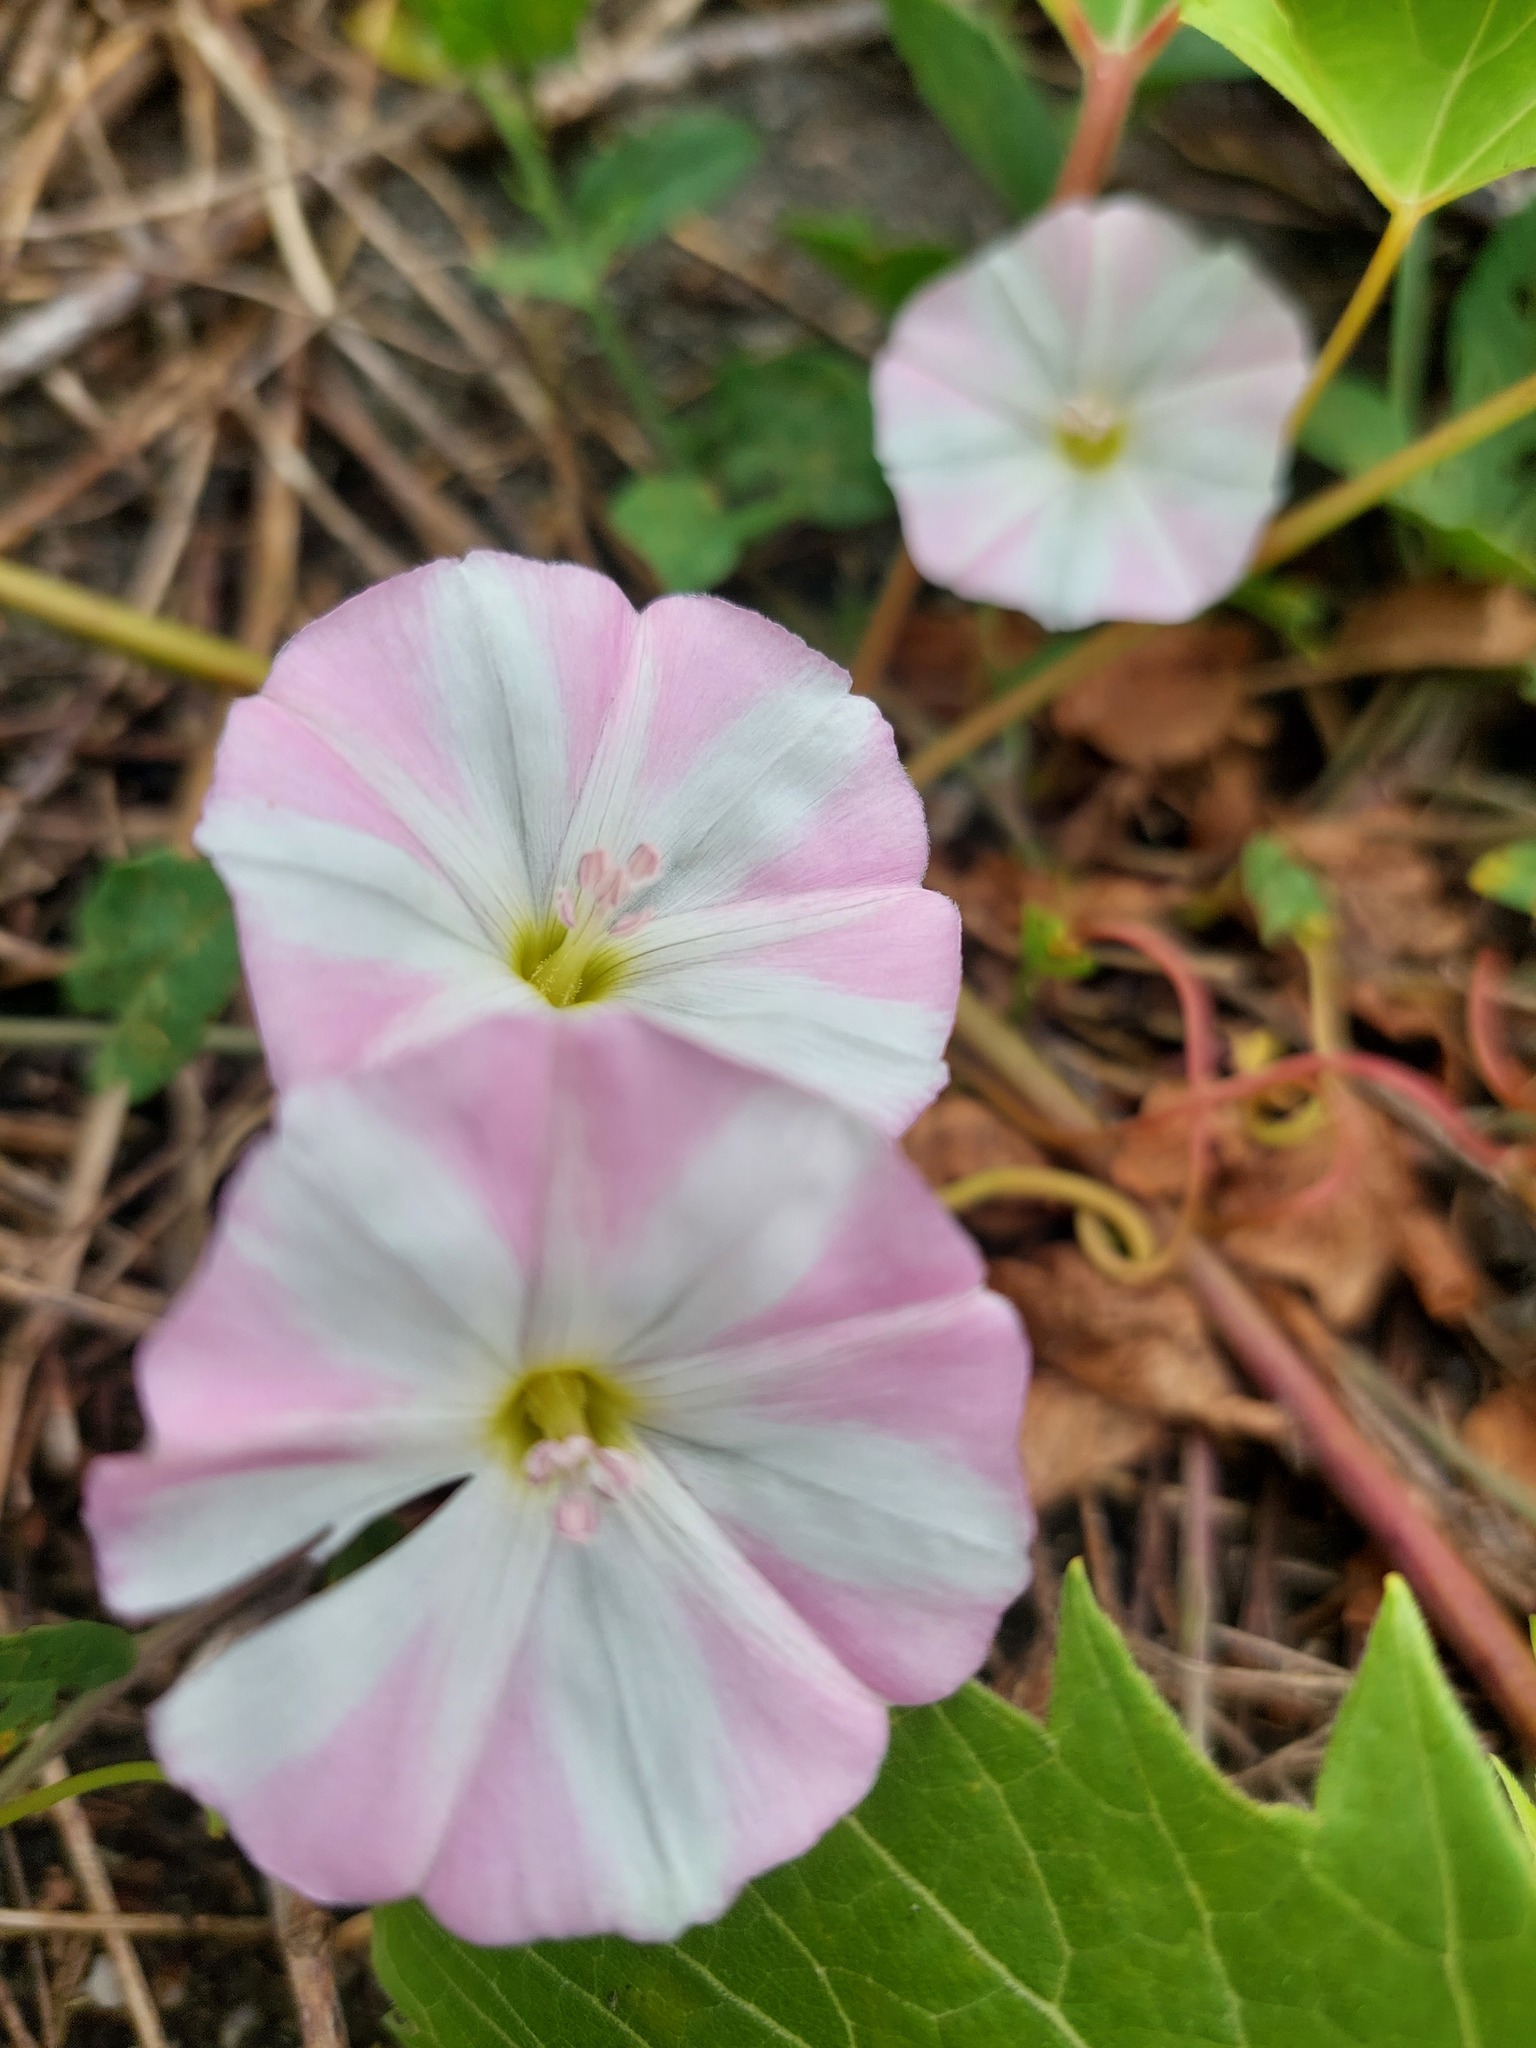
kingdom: Plantae
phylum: Tracheophyta
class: Magnoliopsida
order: Solanales
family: Convolvulaceae
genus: Convolvulus
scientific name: Convolvulus arvensis
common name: Field bindweed
